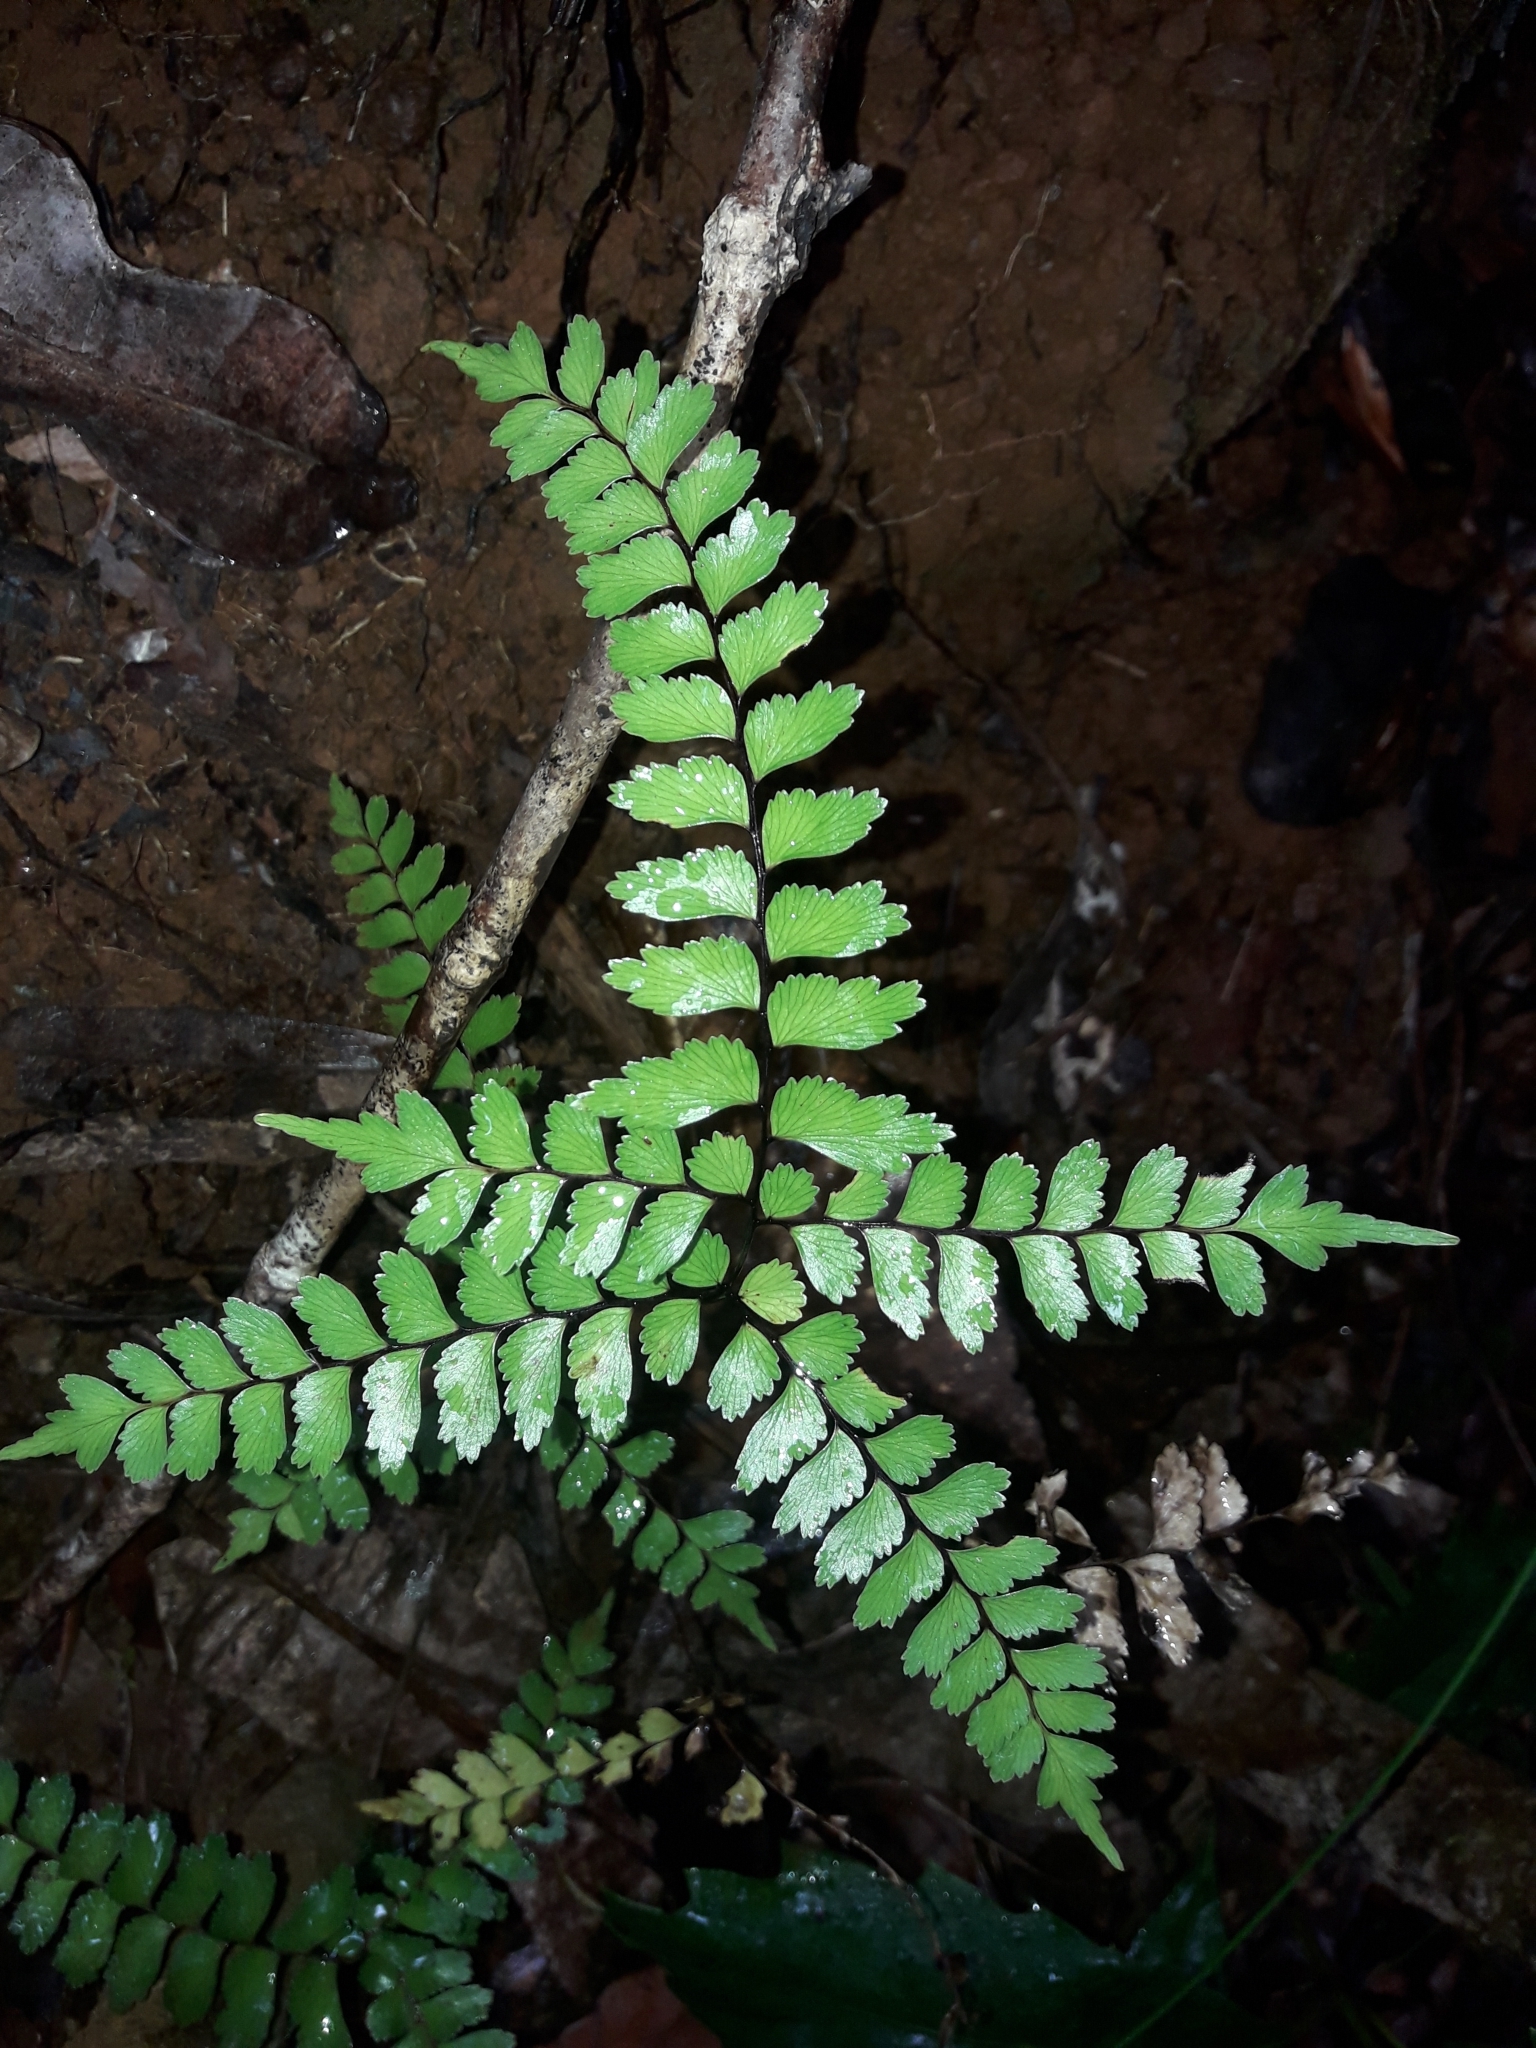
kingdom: Plantae
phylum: Tracheophyta
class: Polypodiopsida
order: Polypodiales
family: Lindsaeaceae
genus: Lindsaea
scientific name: Lindsaea nervosa
